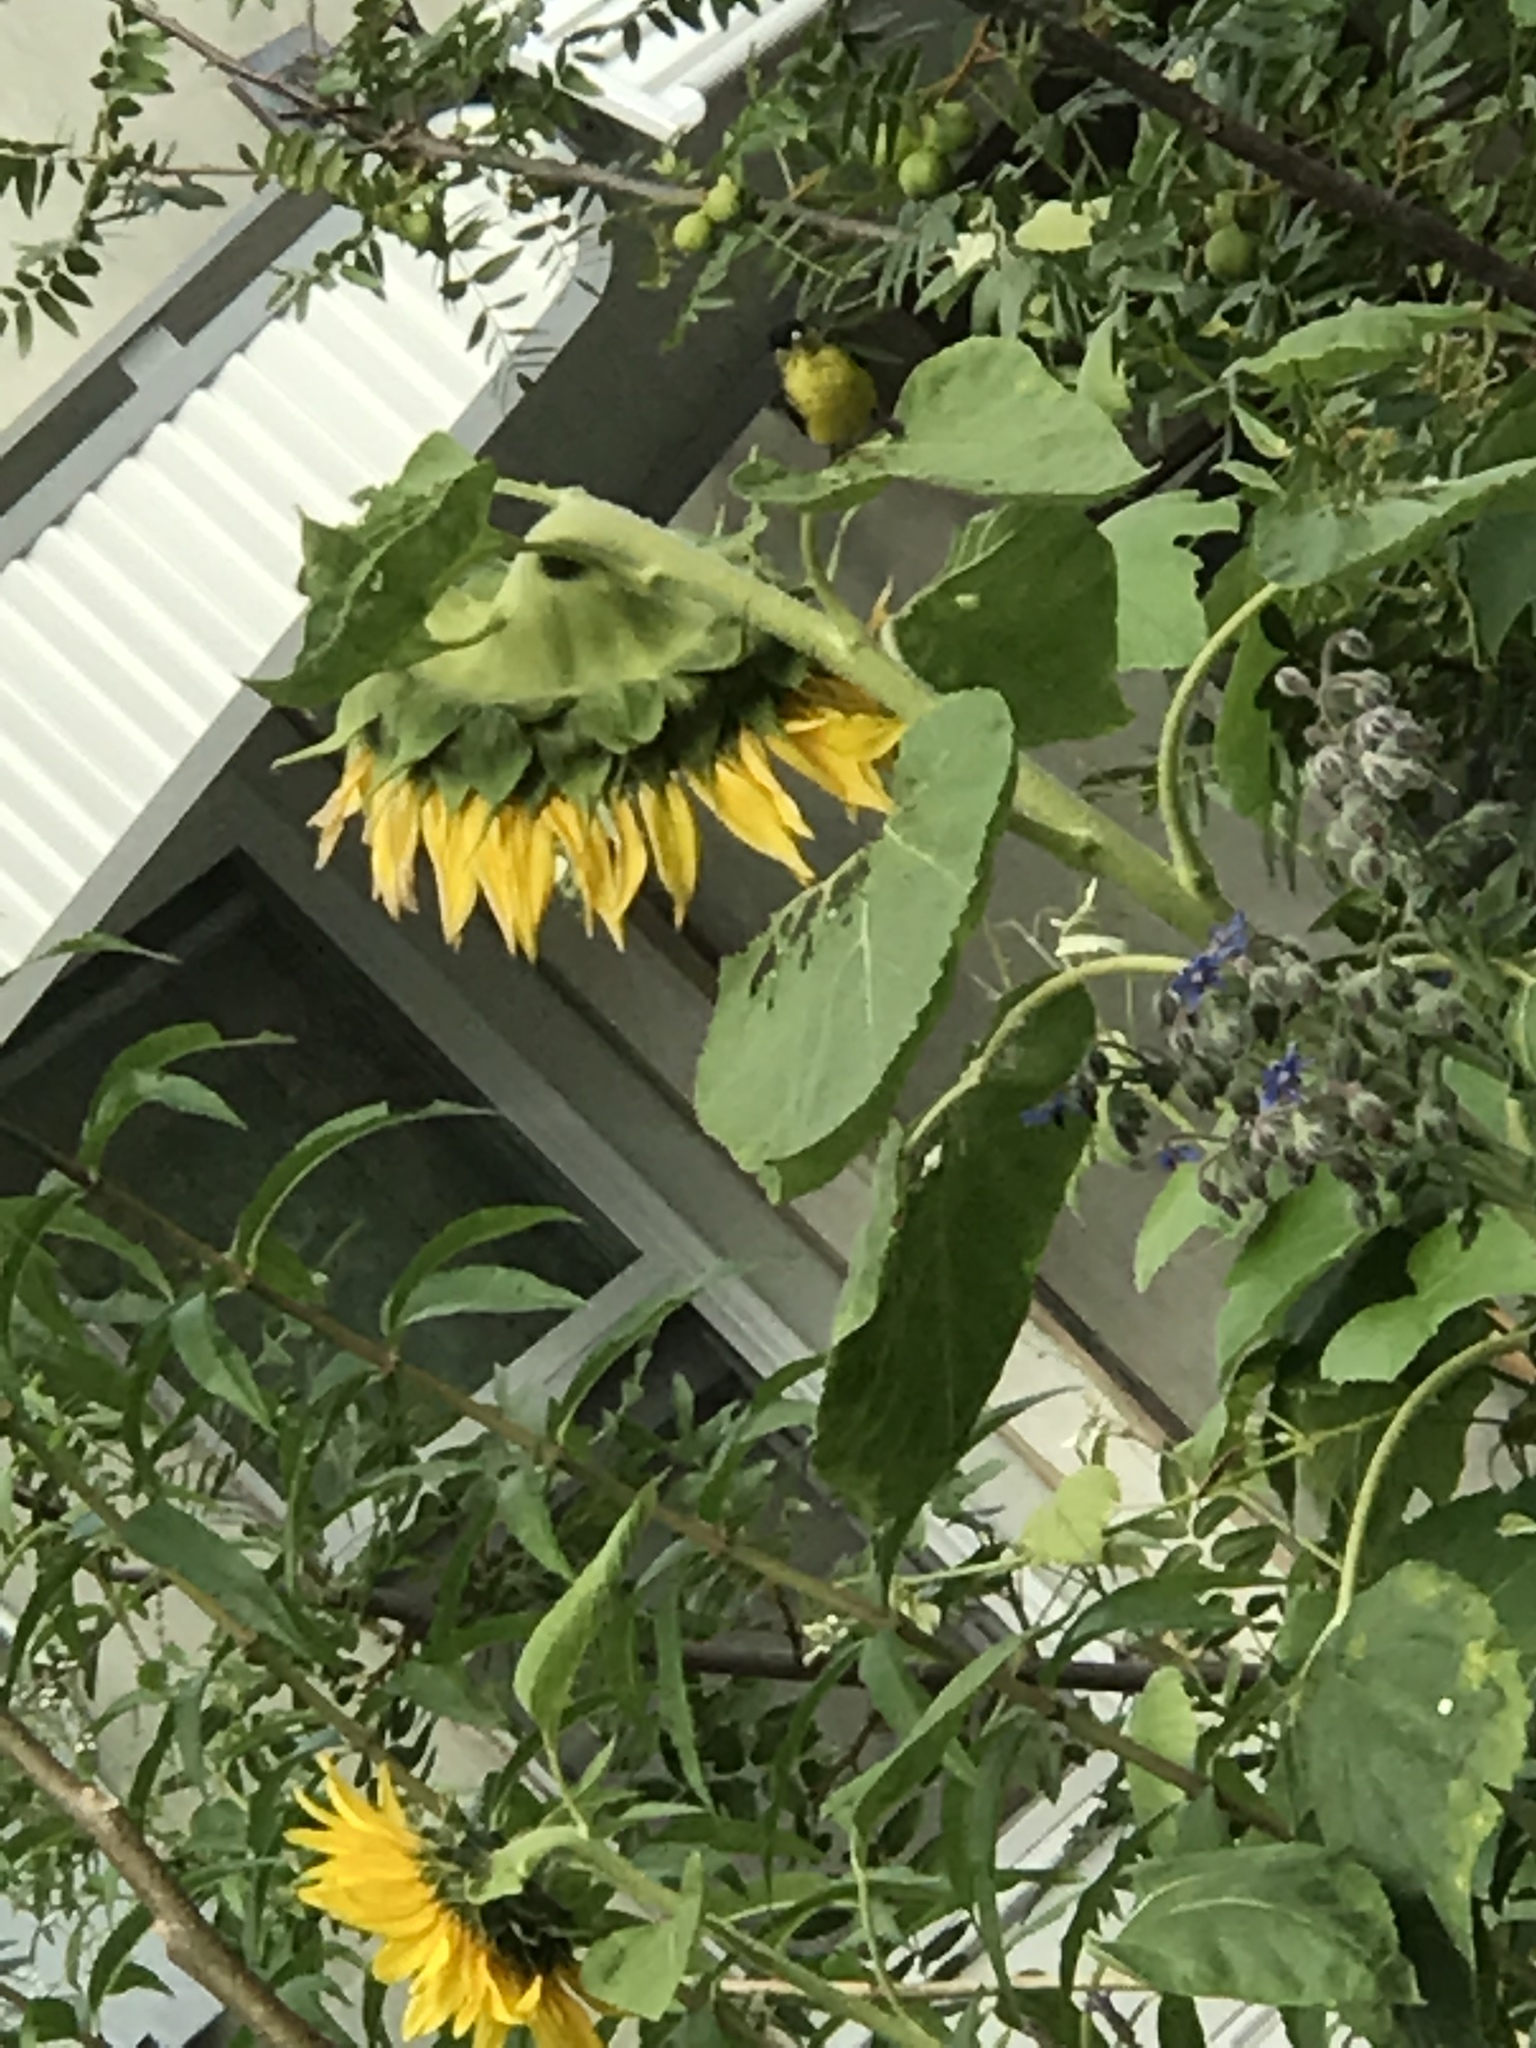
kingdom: Animalia
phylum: Chordata
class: Aves
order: Passeriformes
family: Fringillidae
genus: Spinus
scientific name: Spinus psaltria
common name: Lesser goldfinch
